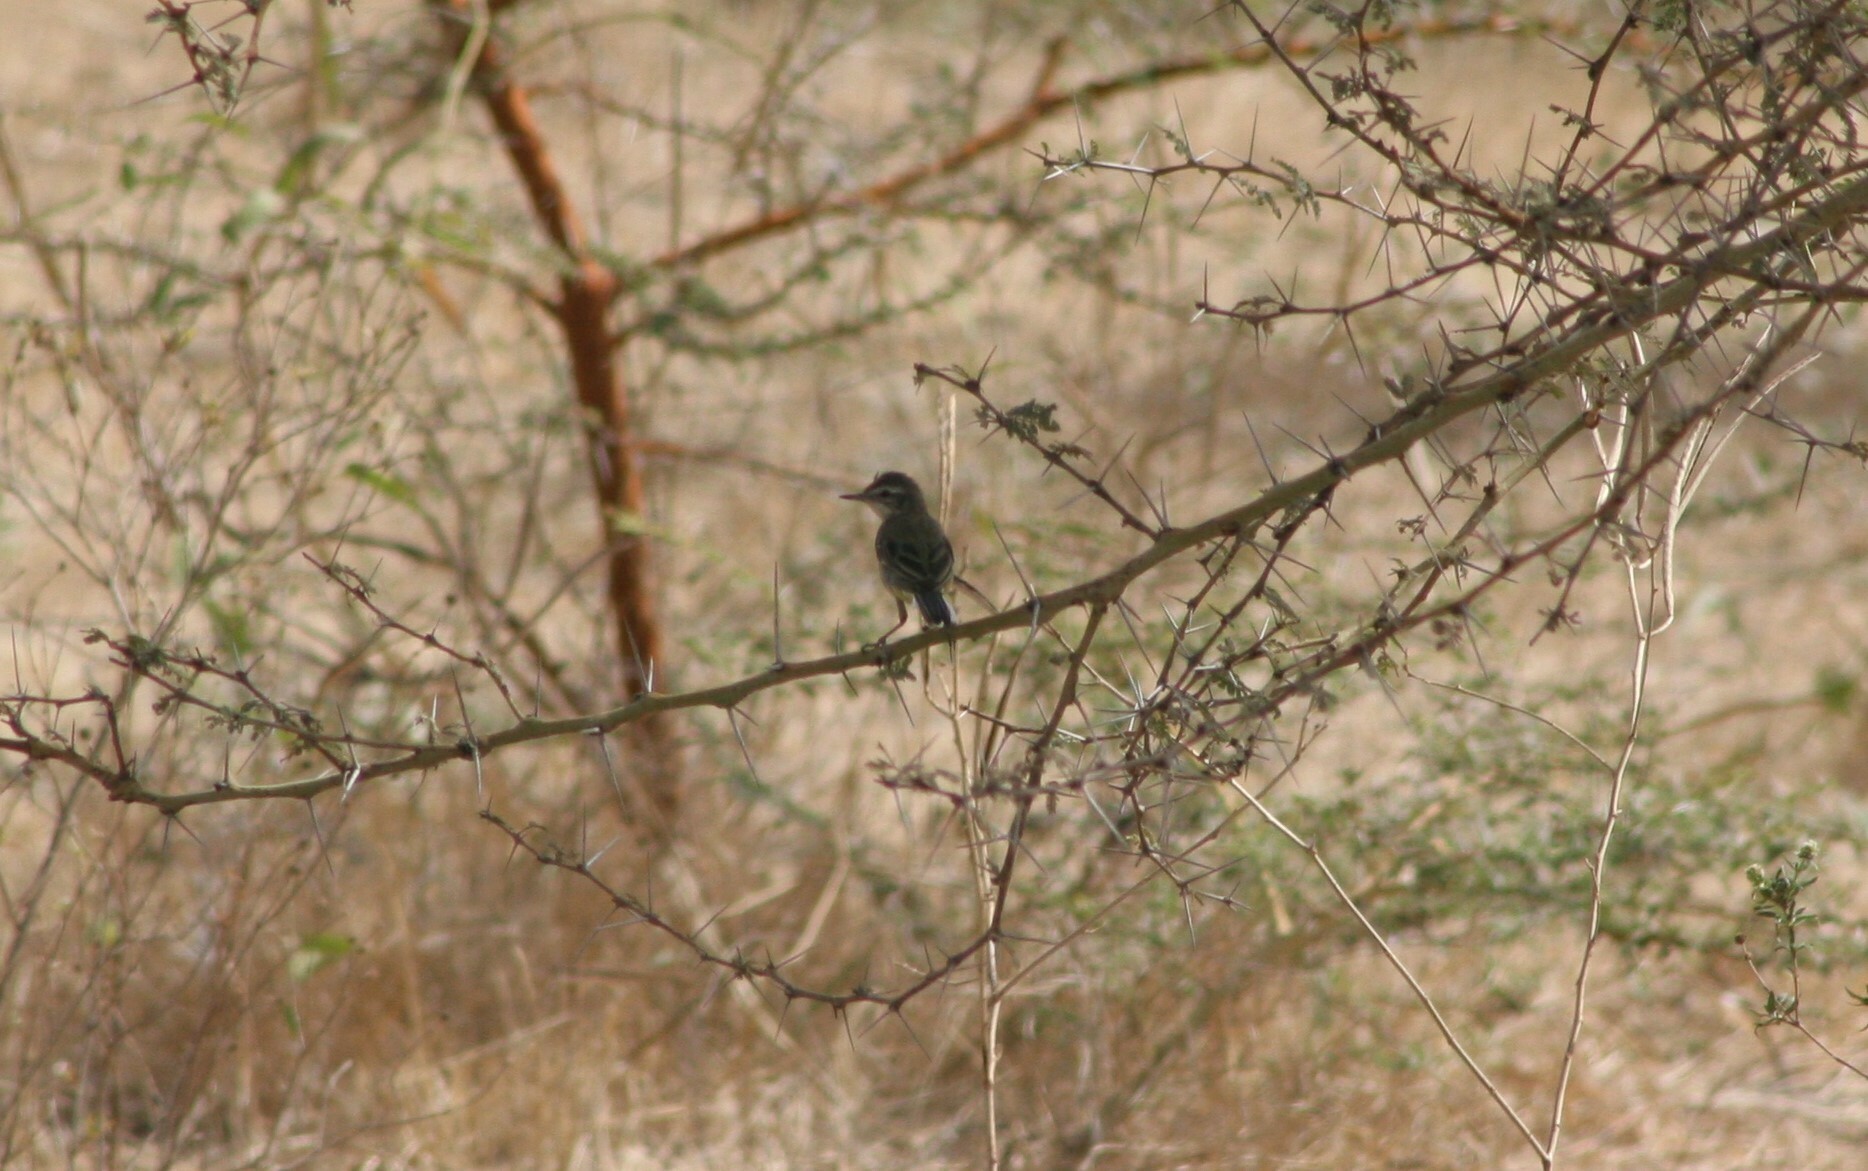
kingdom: Animalia
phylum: Chordata
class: Aves
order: Passeriformes
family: Motacillidae
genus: Motacilla
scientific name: Motacilla flava
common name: Western yellow wagtail
